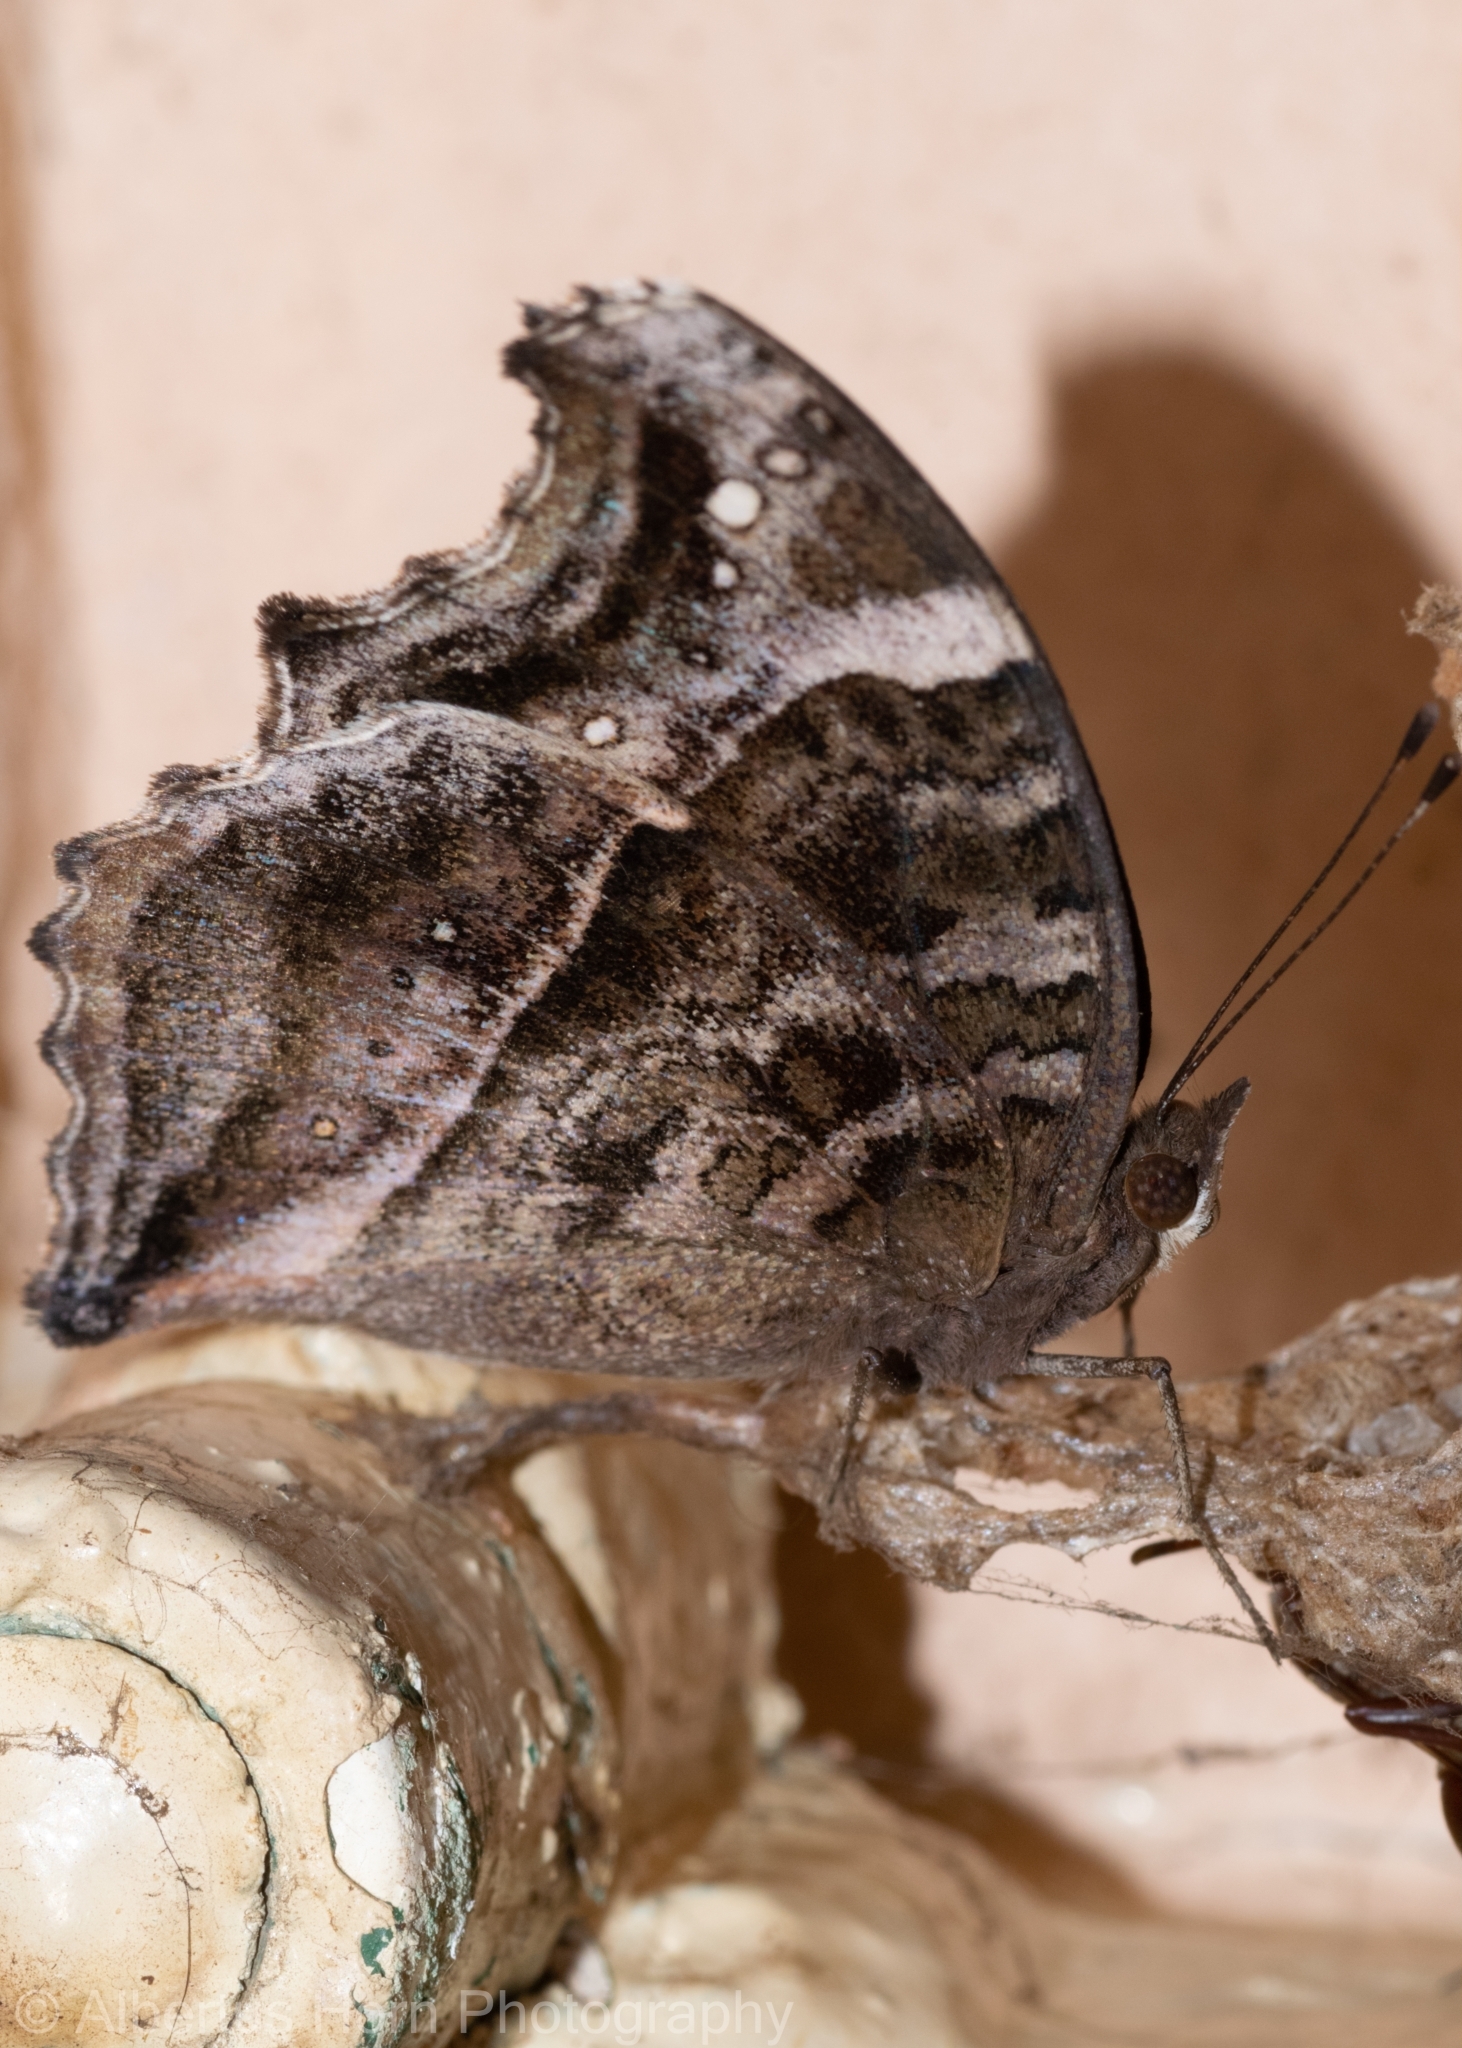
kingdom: Animalia
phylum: Arthropoda
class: Insecta
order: Lepidoptera
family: Nymphalidae
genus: Junonia
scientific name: Junonia archesia
